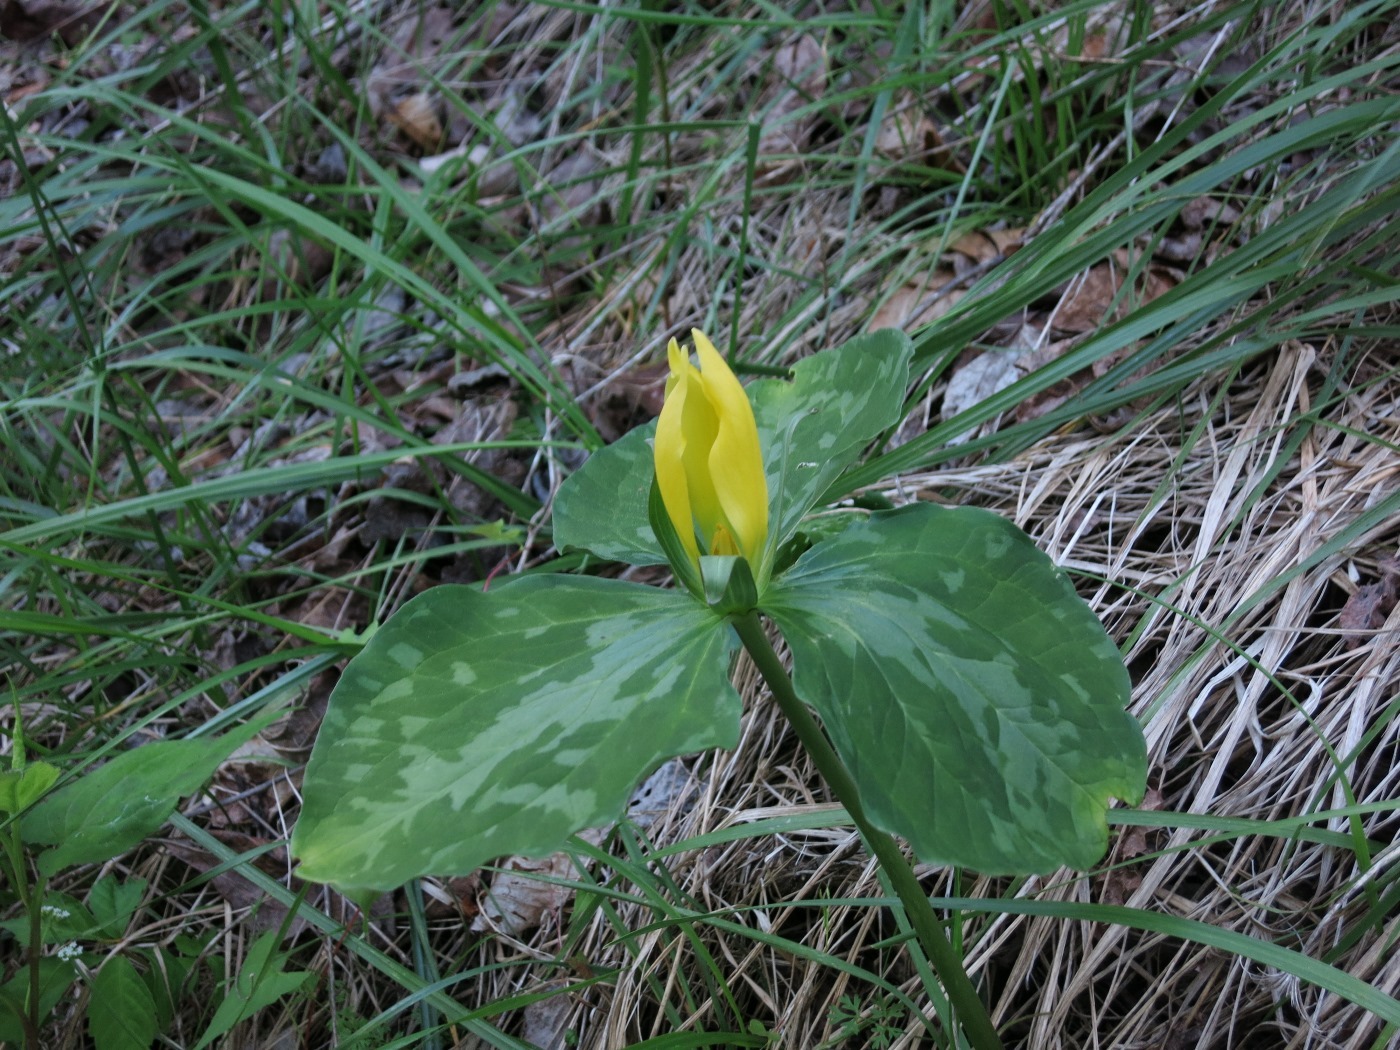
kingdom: Plantae
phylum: Tracheophyta
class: Liliopsida
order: Liliales
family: Melanthiaceae
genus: Trillium
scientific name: Trillium luteum
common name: Wax trillium
